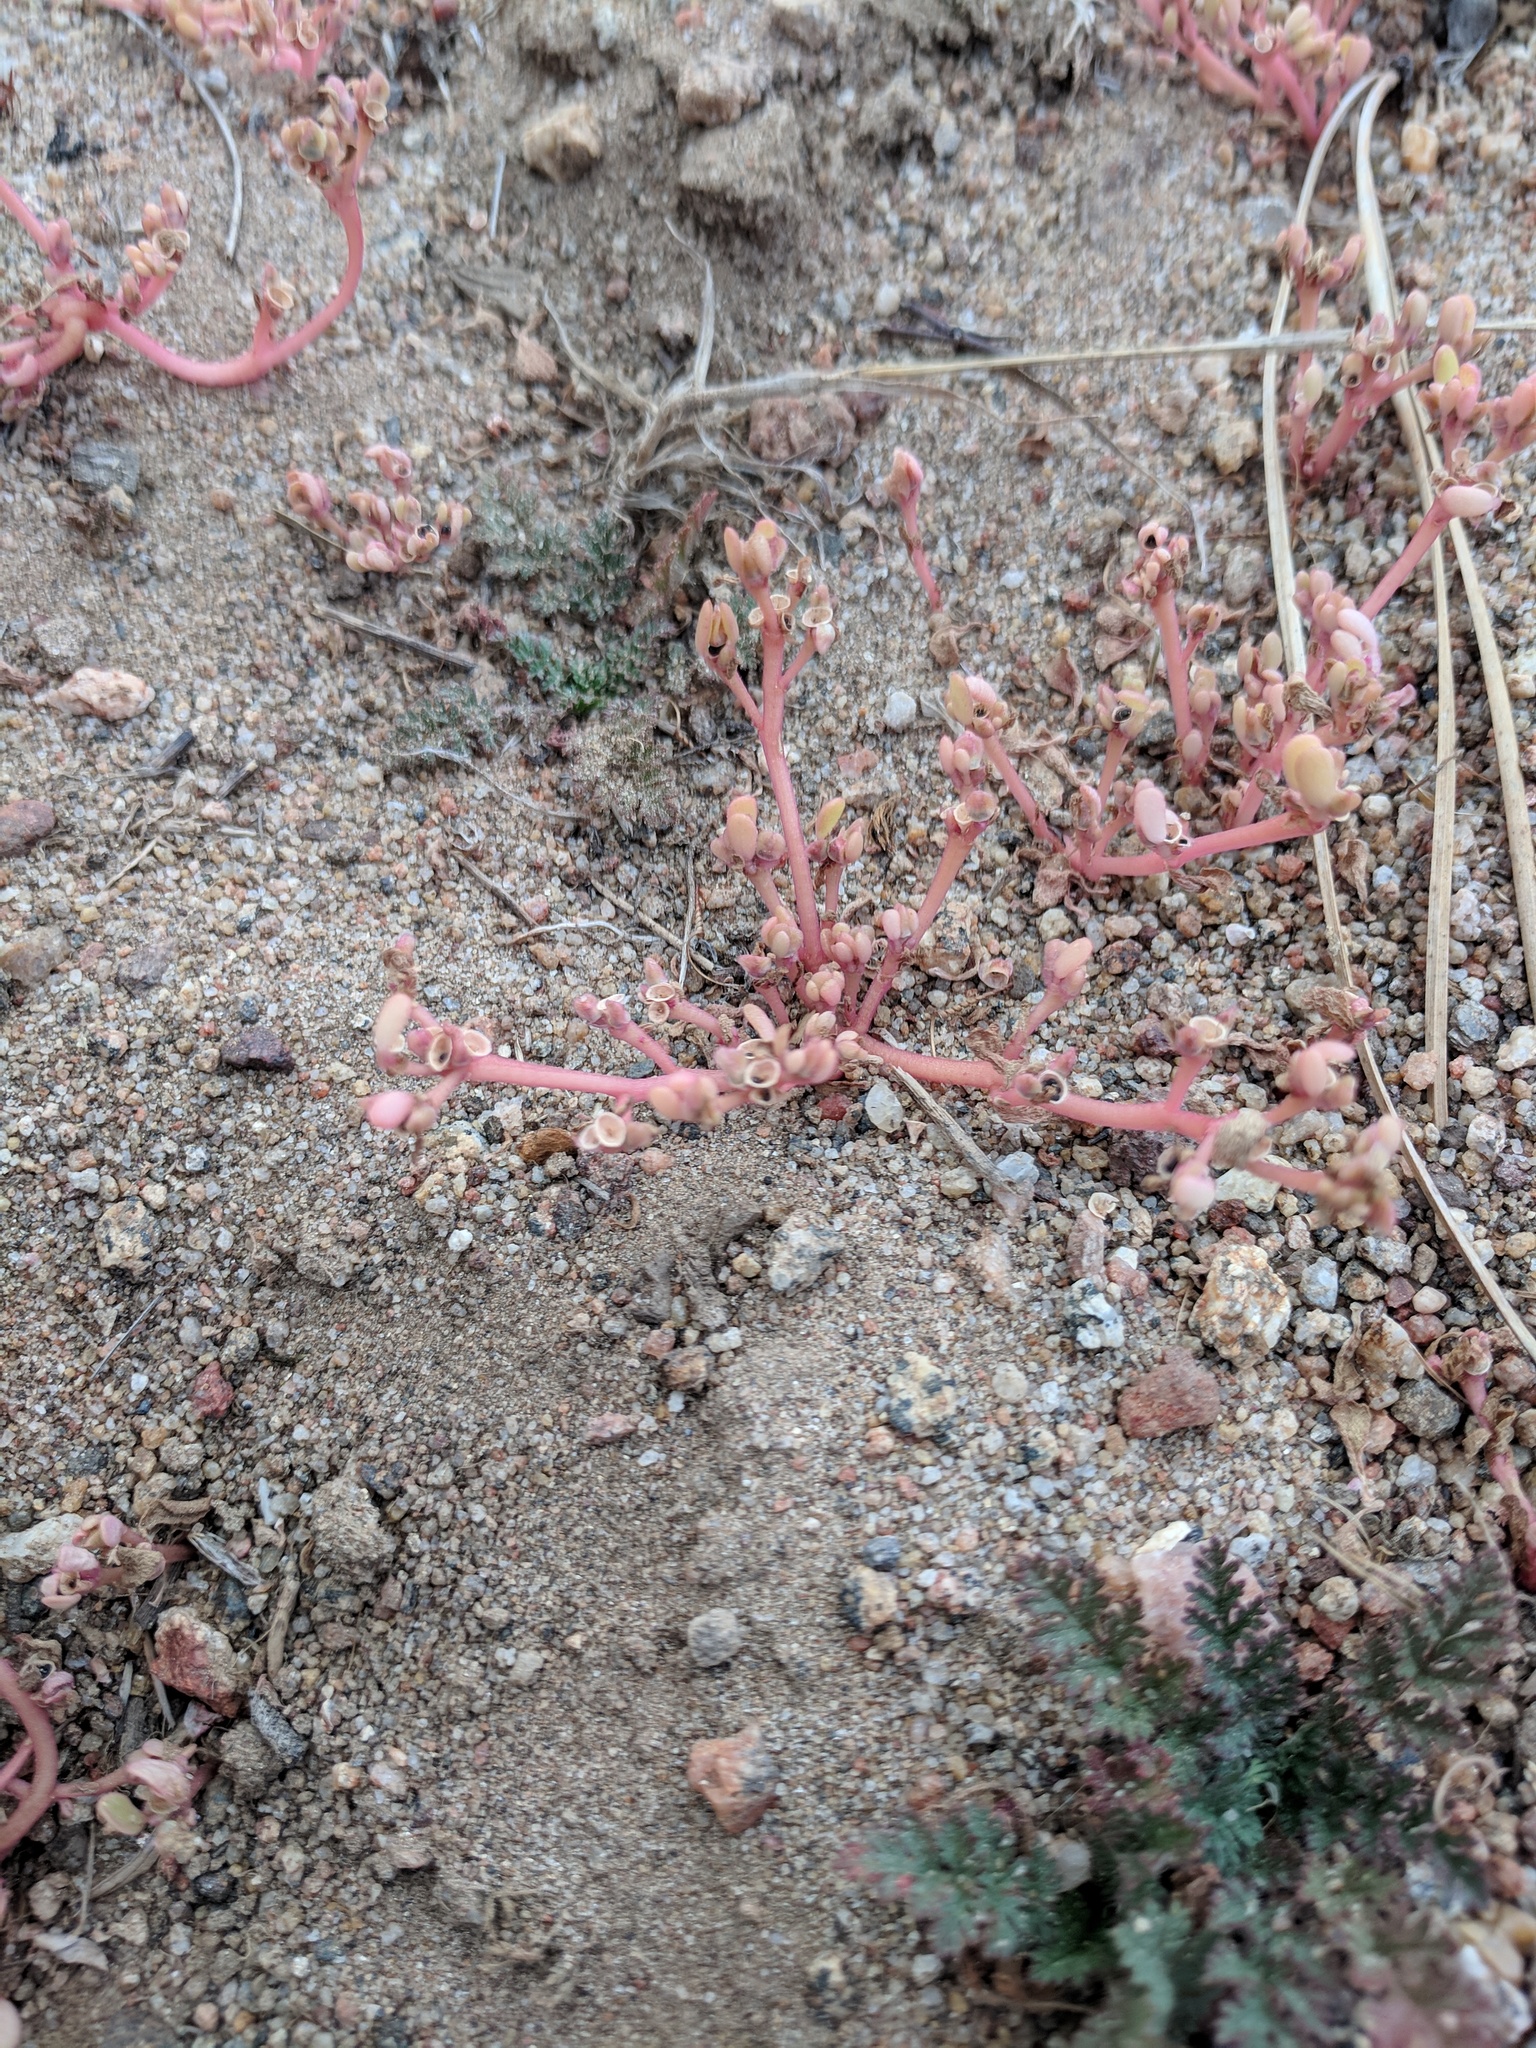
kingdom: Plantae
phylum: Tracheophyta
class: Magnoliopsida
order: Caryophyllales
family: Portulacaceae
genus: Portulaca
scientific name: Portulaca oleracea
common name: Common purslane
